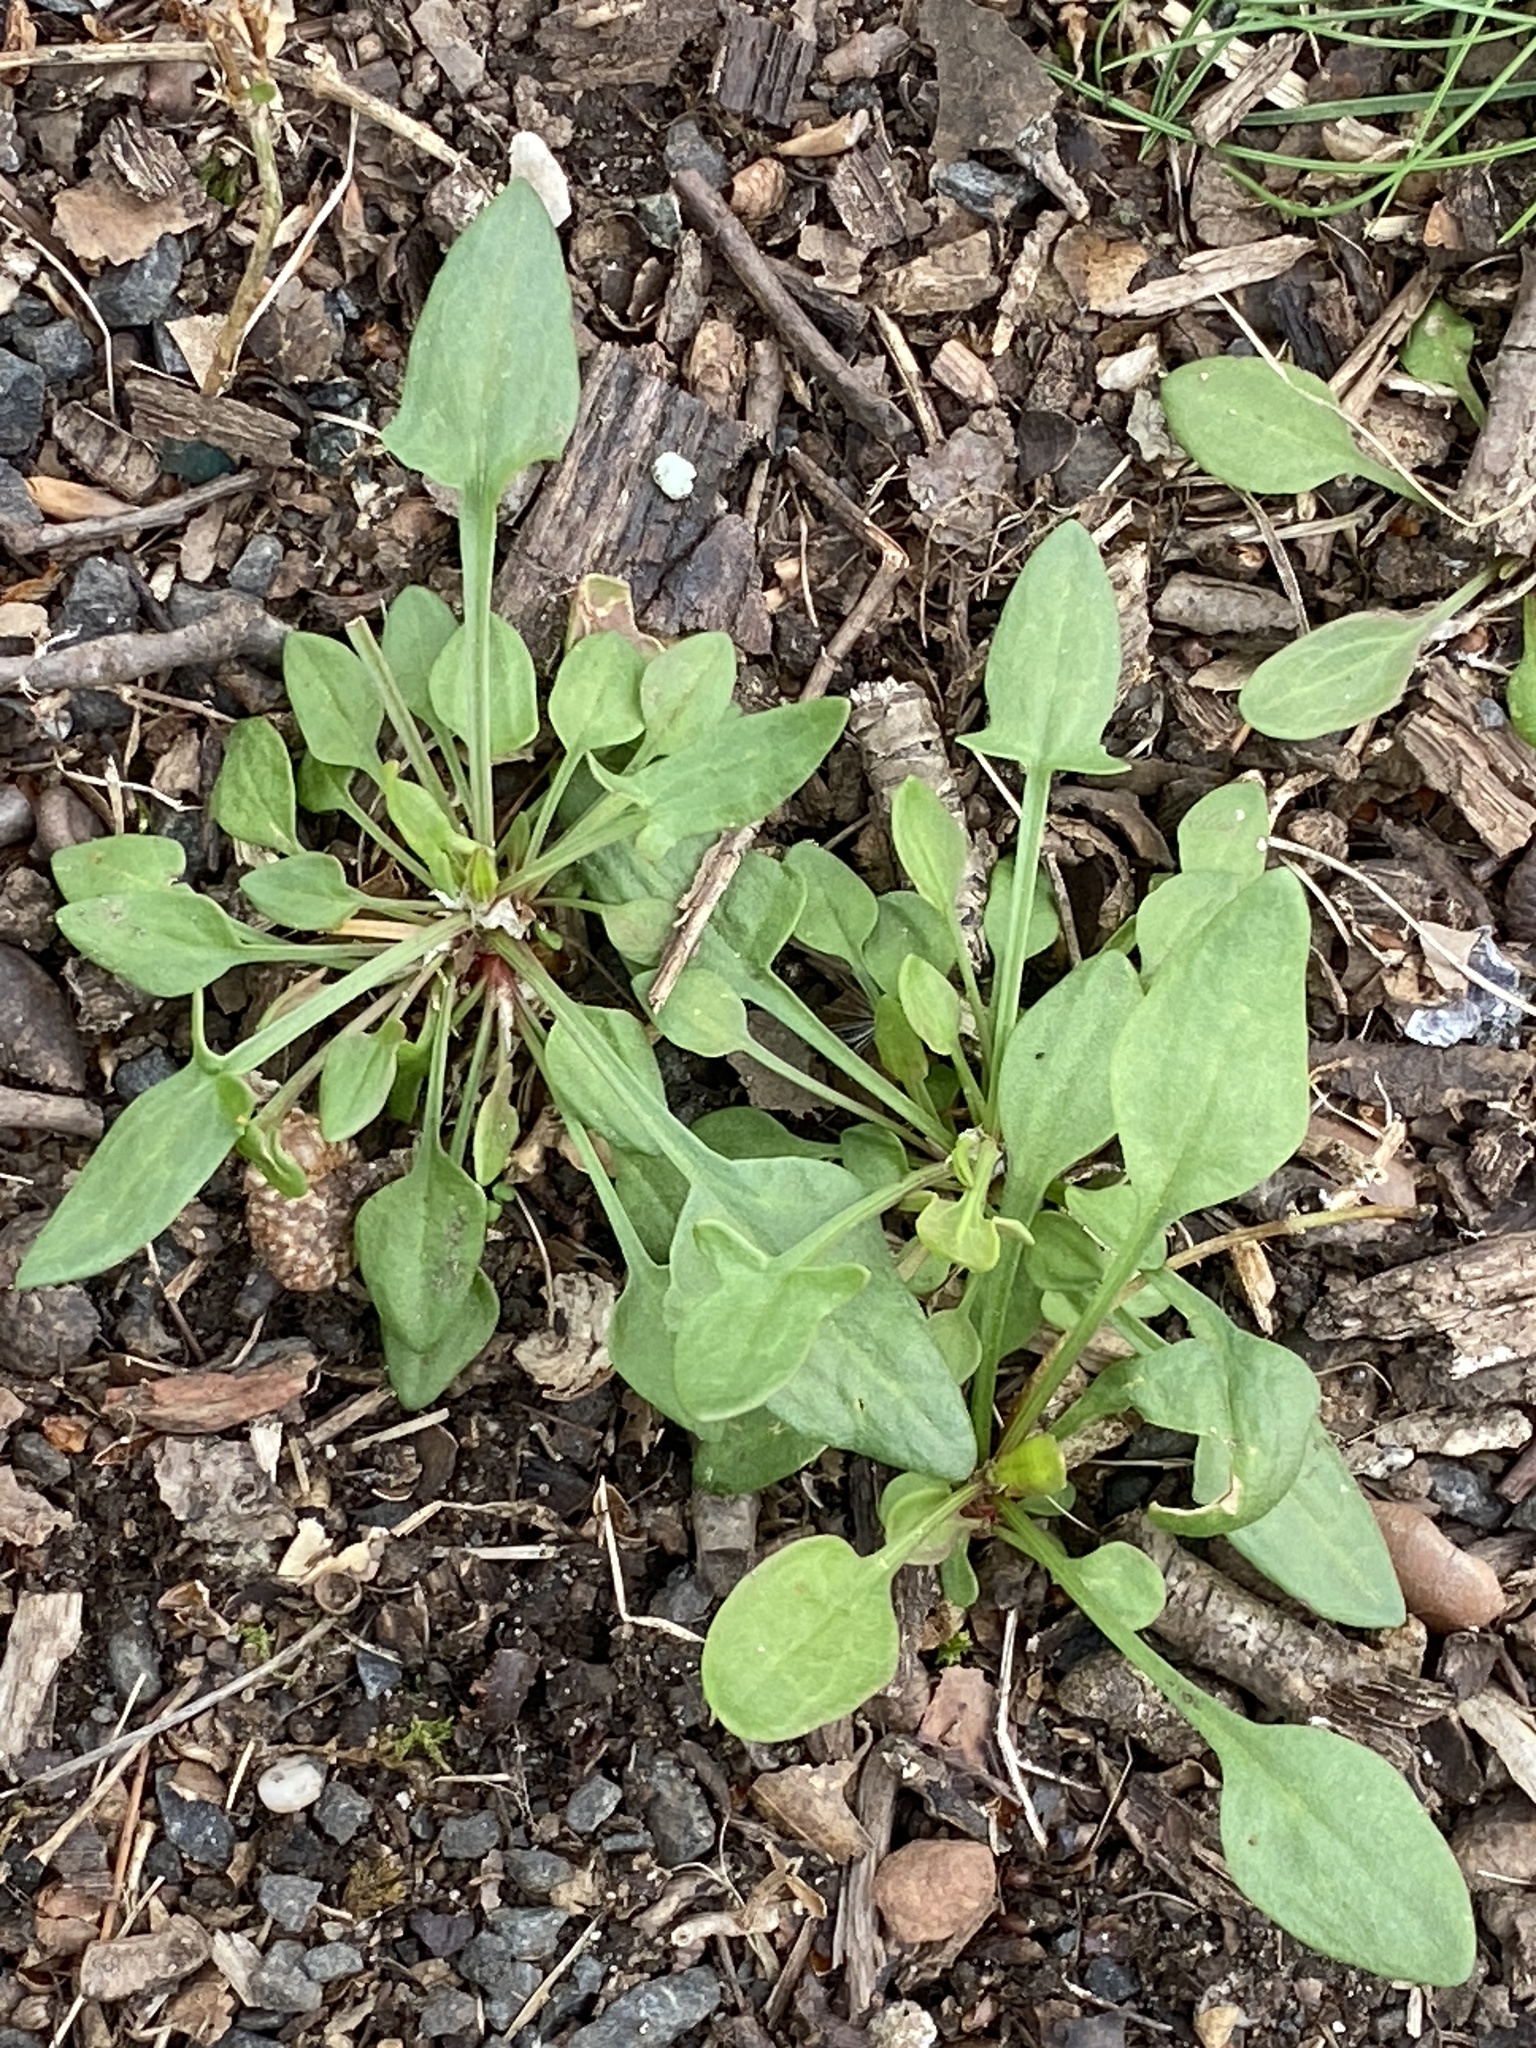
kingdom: Plantae
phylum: Tracheophyta
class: Magnoliopsida
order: Caryophyllales
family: Polygonaceae
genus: Rumex
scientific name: Rumex acetosella
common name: Common sheep sorrel
